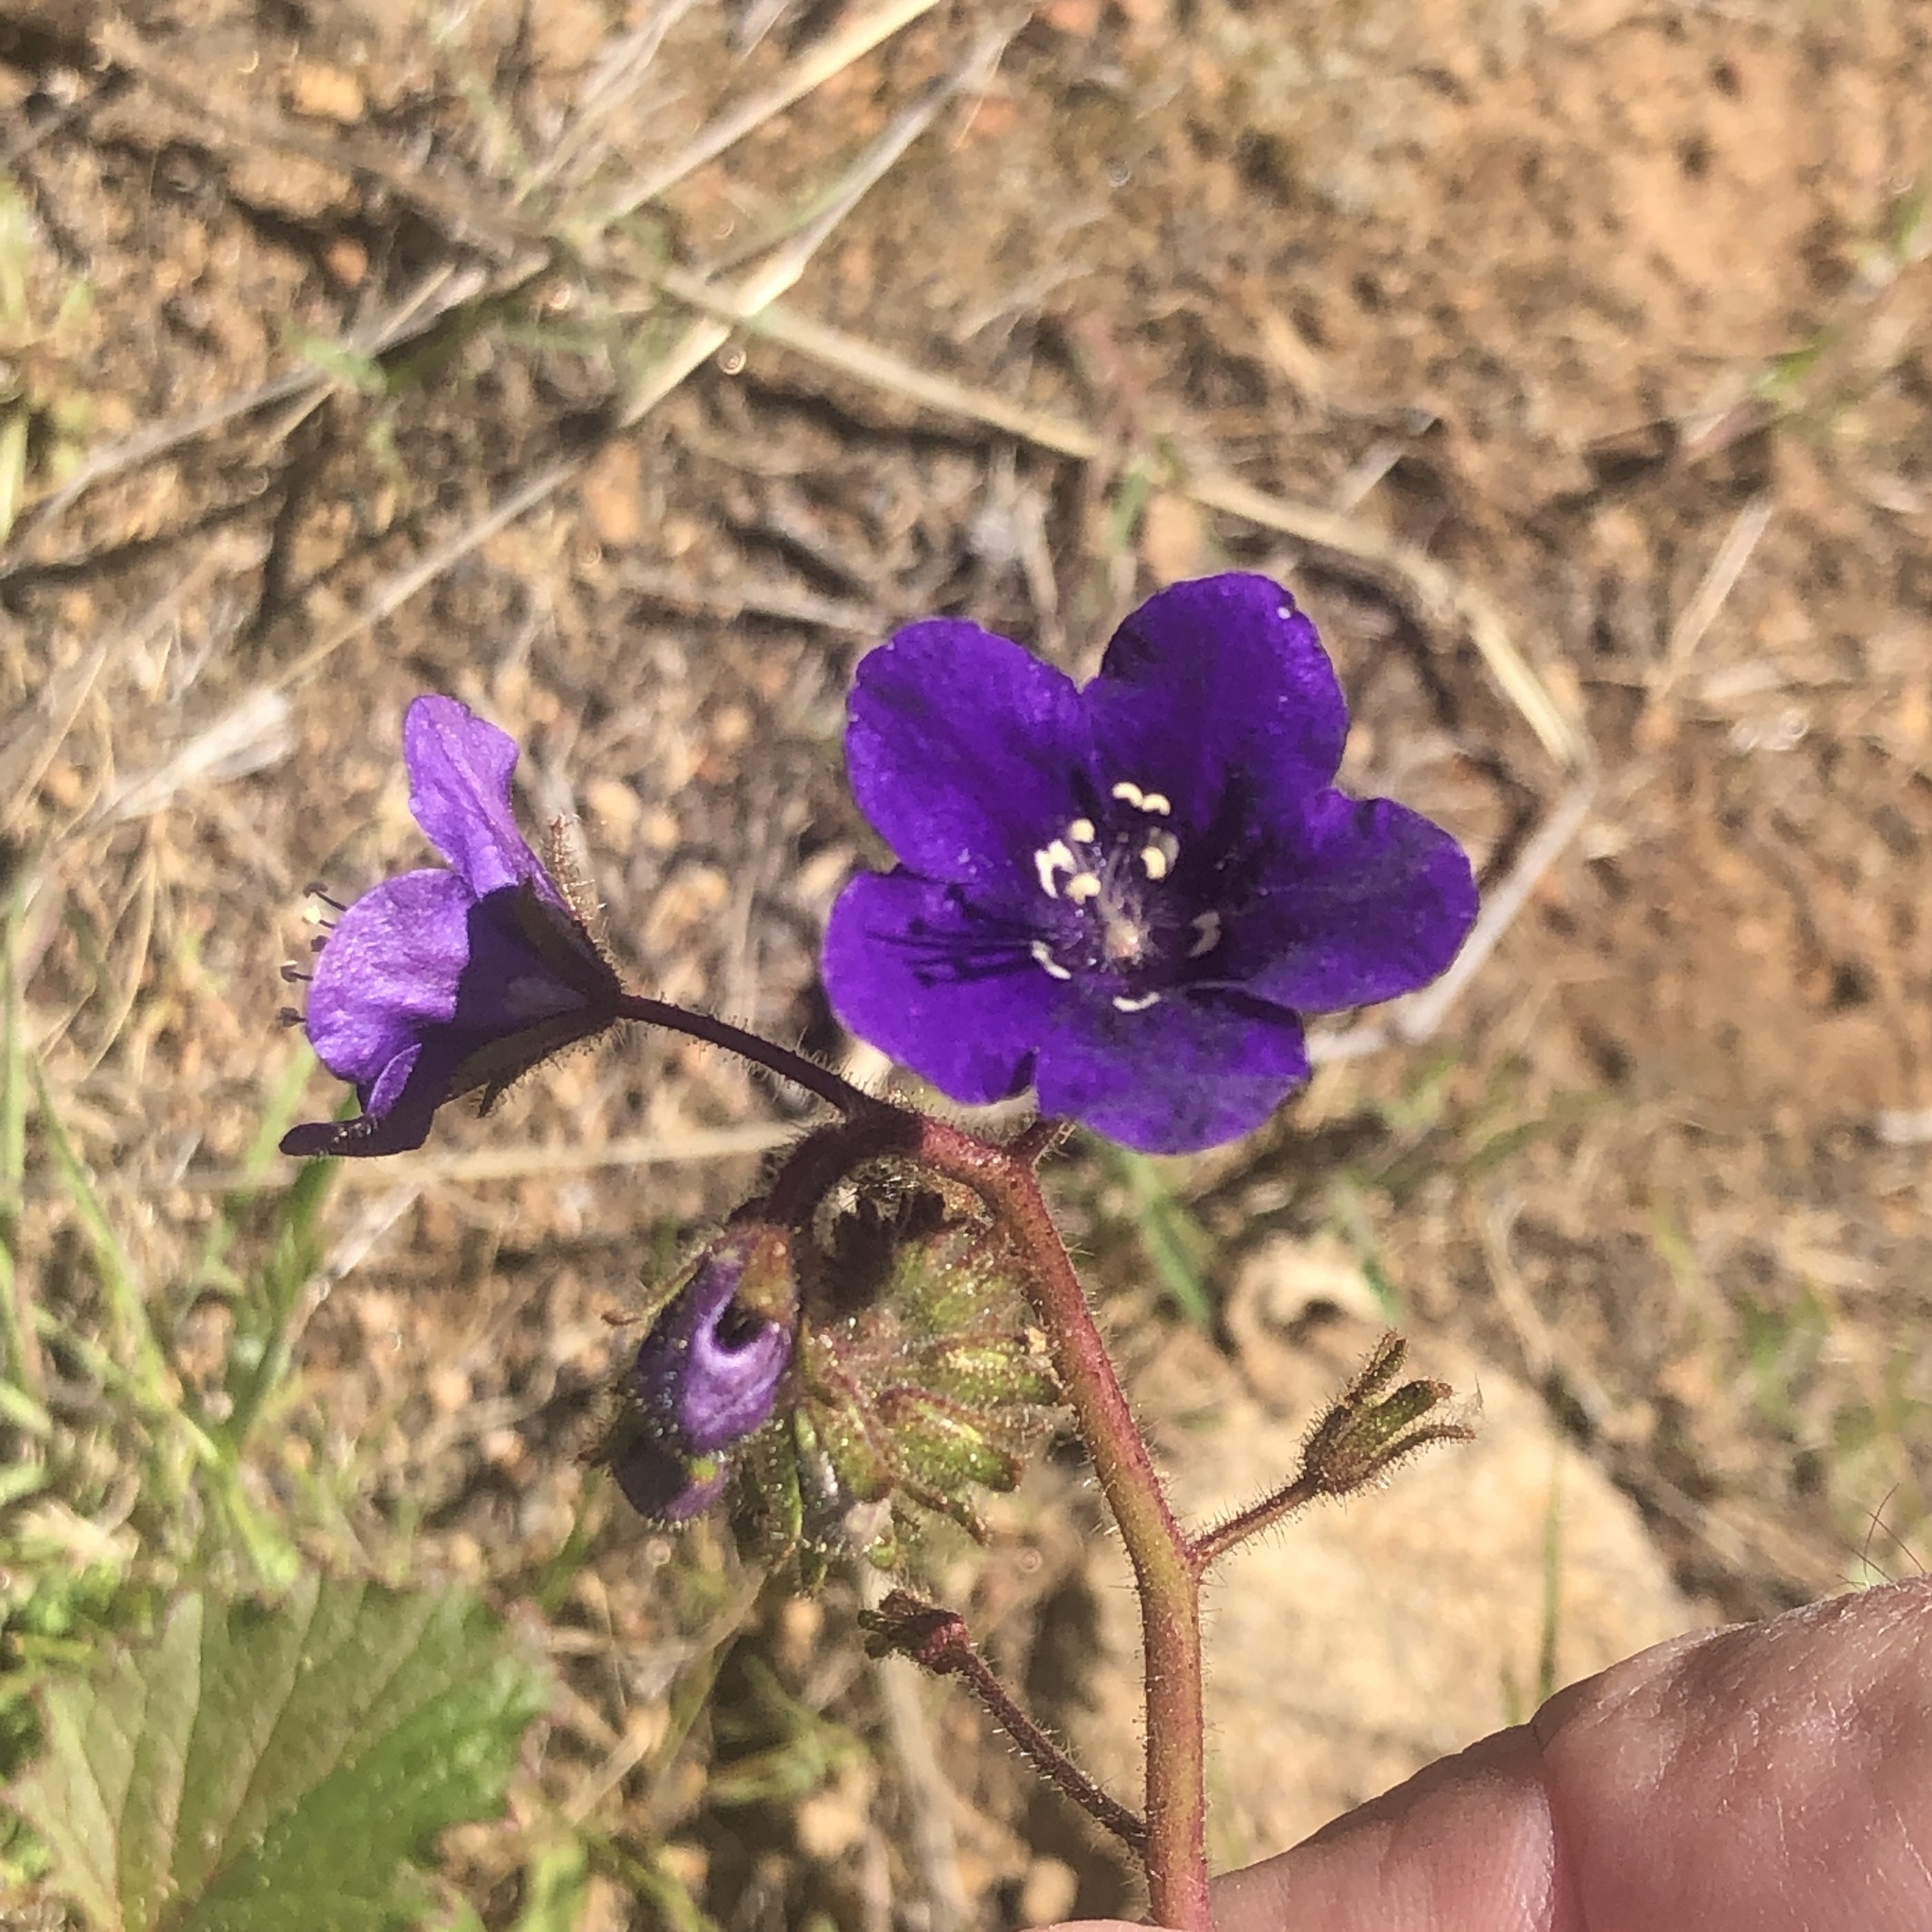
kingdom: Plantae
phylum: Tracheophyta
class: Magnoliopsida
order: Boraginales
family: Hydrophyllaceae
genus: Phacelia
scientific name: Phacelia parryi
